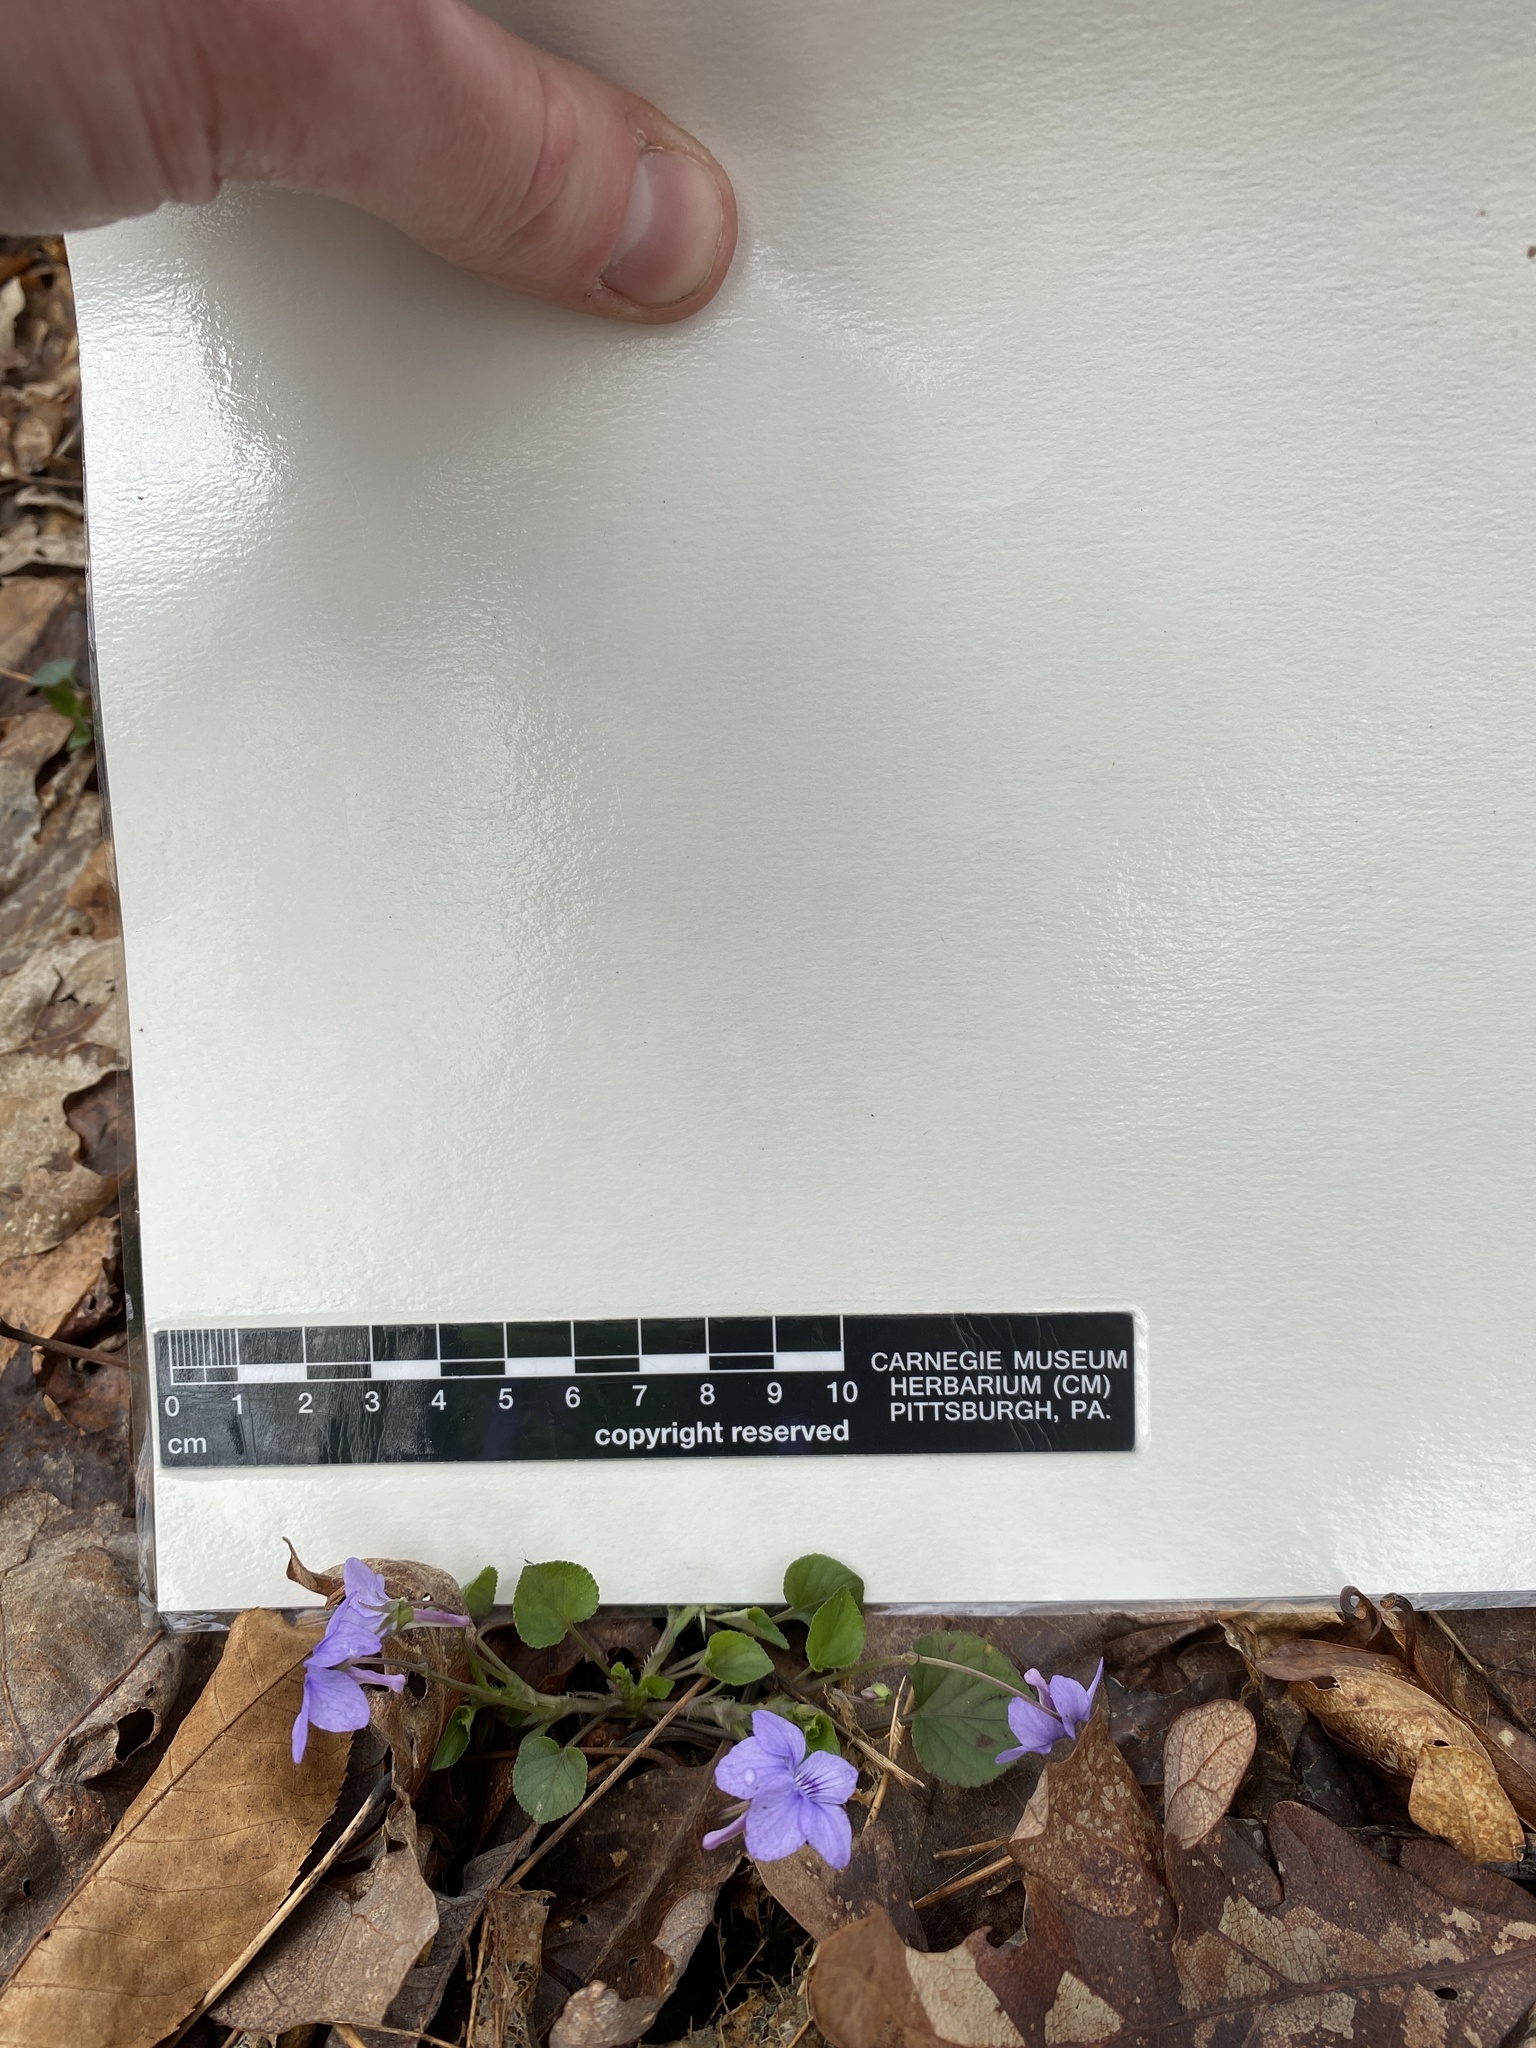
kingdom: Plantae
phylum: Tracheophyta
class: Magnoliopsida
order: Malpighiales
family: Violaceae
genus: Viola
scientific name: Viola rostrata
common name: Long-spur violet
